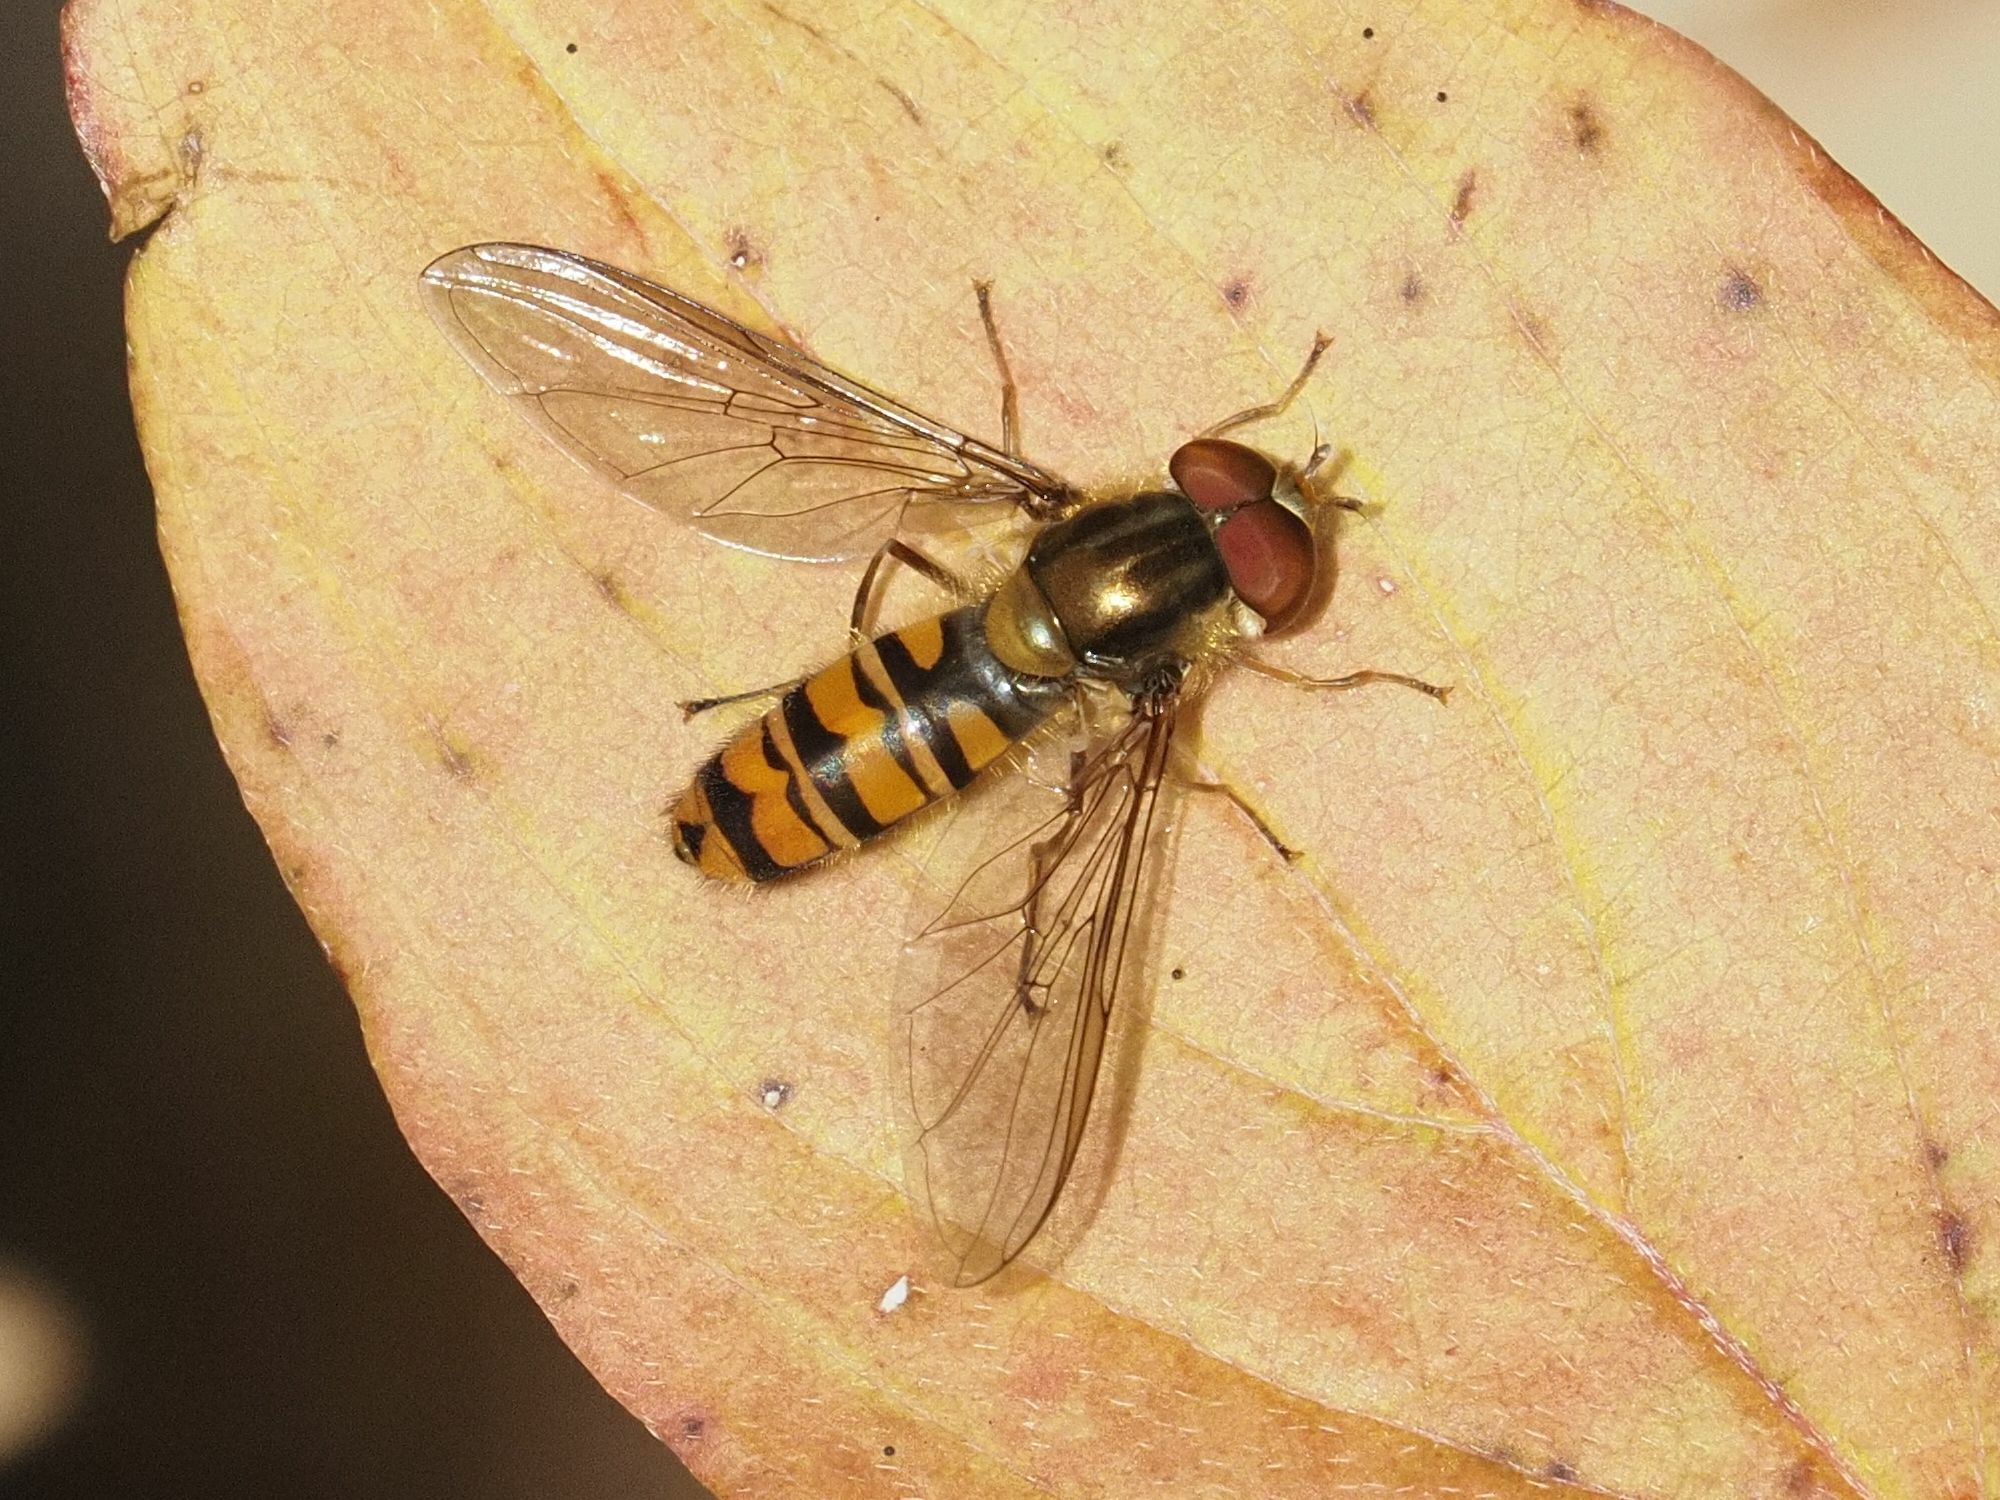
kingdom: Animalia
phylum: Arthropoda
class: Insecta
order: Diptera
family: Syrphidae
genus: Episyrphus
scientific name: Episyrphus balteatus
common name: Marmalade hoverfly
